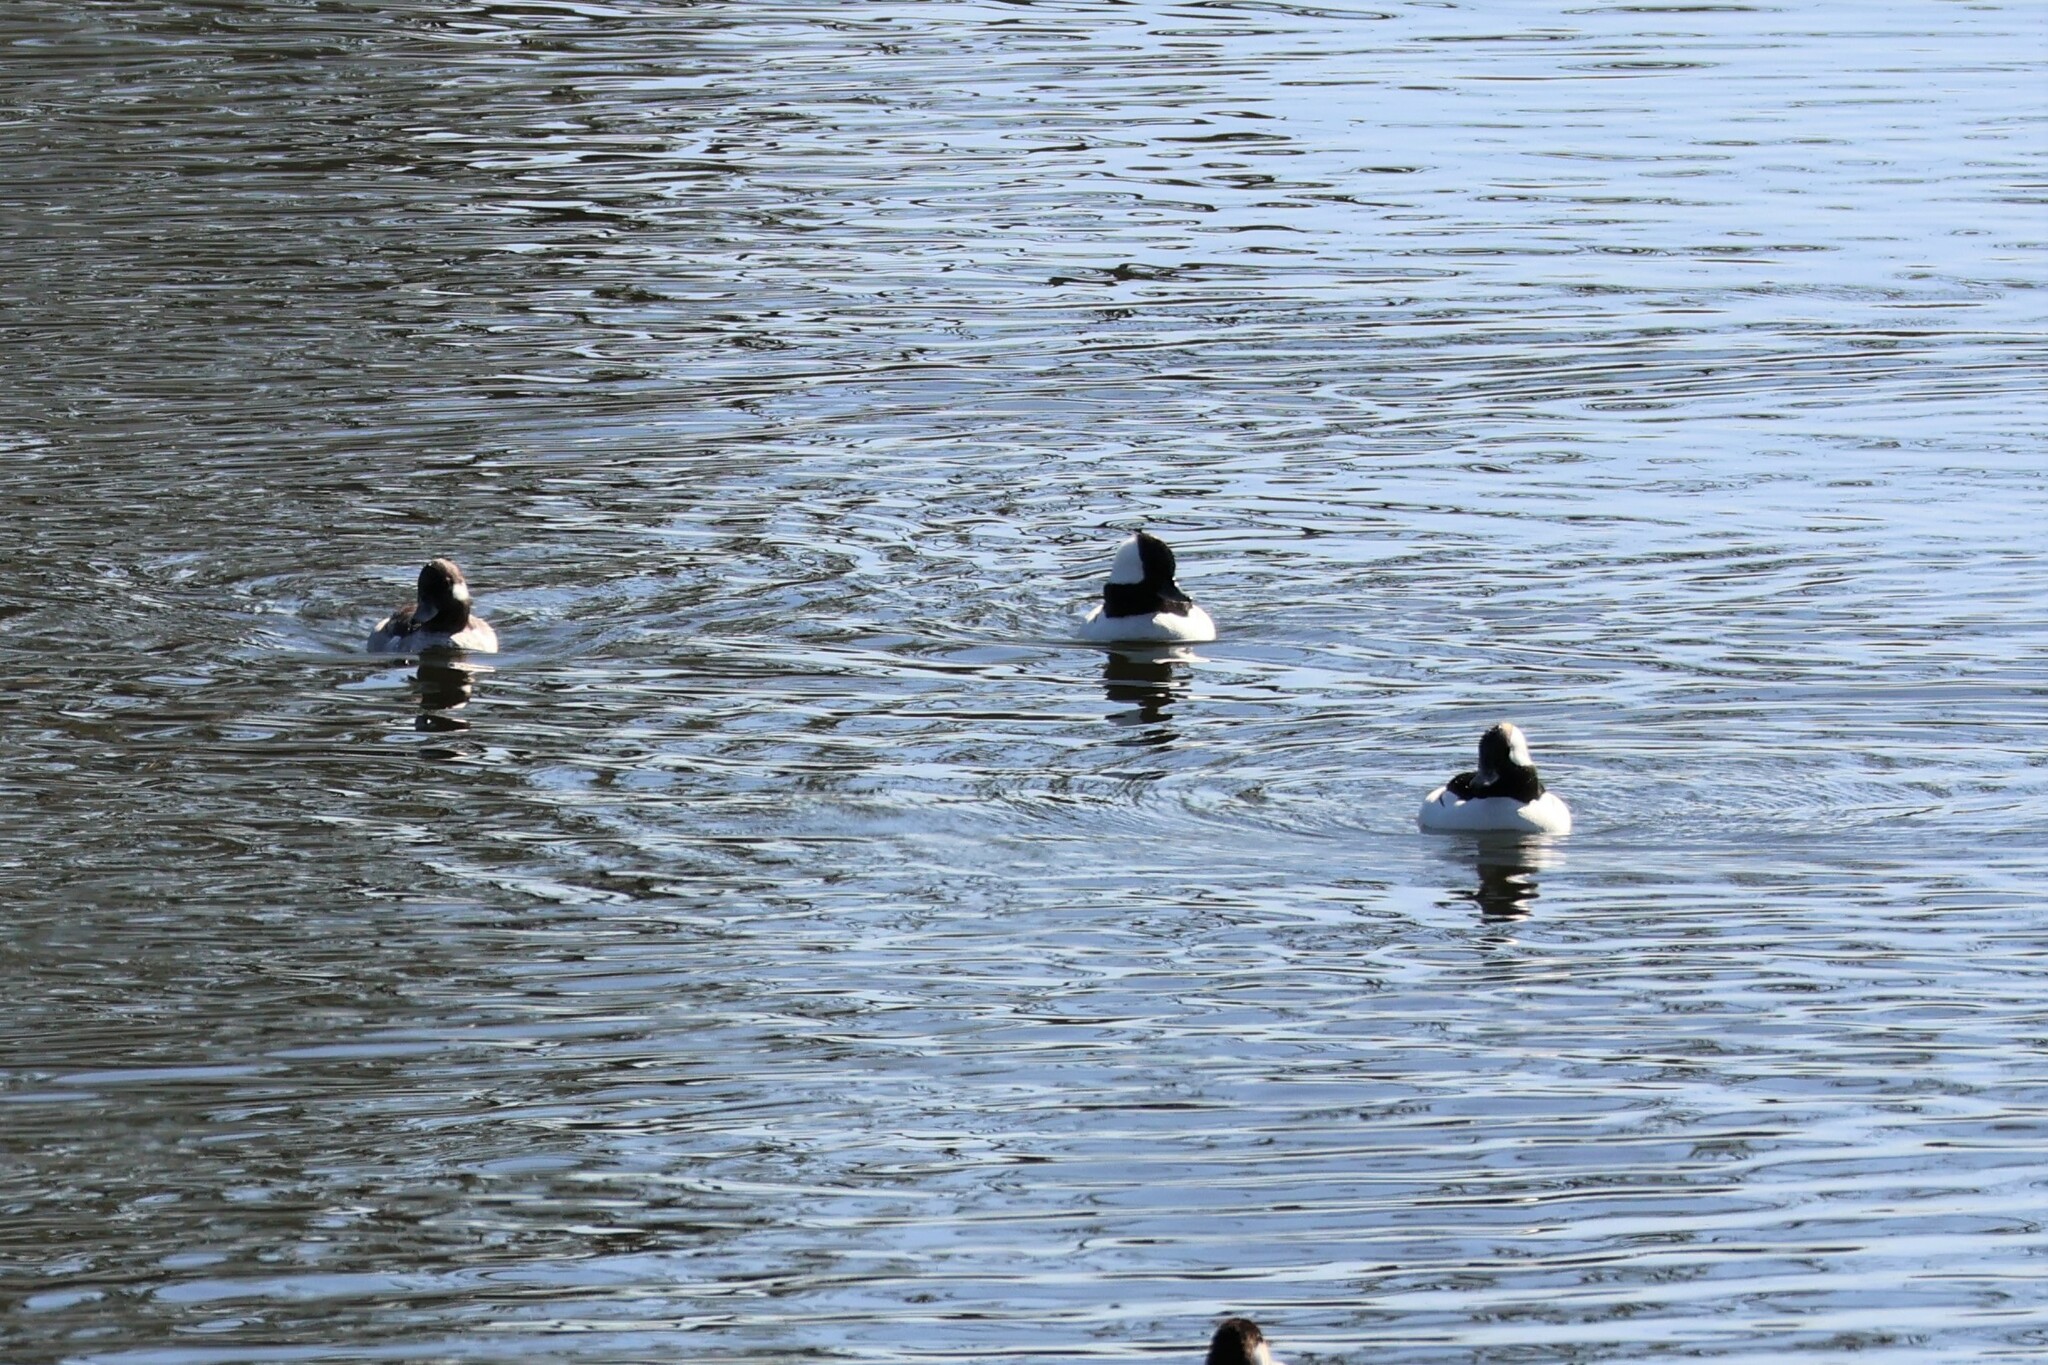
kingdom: Animalia
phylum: Chordata
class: Aves
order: Anseriformes
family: Anatidae
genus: Bucephala
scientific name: Bucephala albeola
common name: Bufflehead
